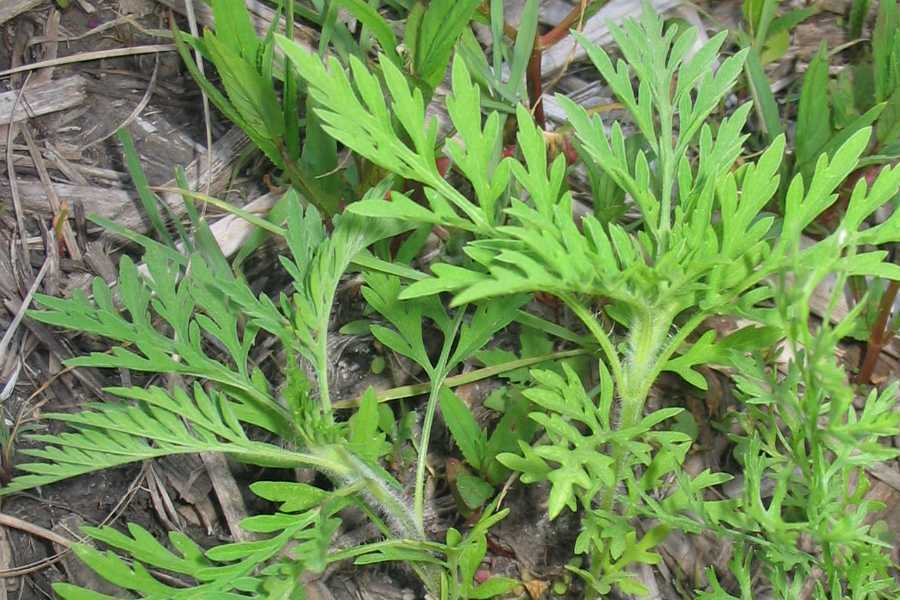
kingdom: Plantae
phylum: Tracheophyta
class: Magnoliopsida
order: Asterales
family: Asteraceae
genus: Ambrosia
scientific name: Ambrosia artemisiifolia
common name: Annual ragweed
